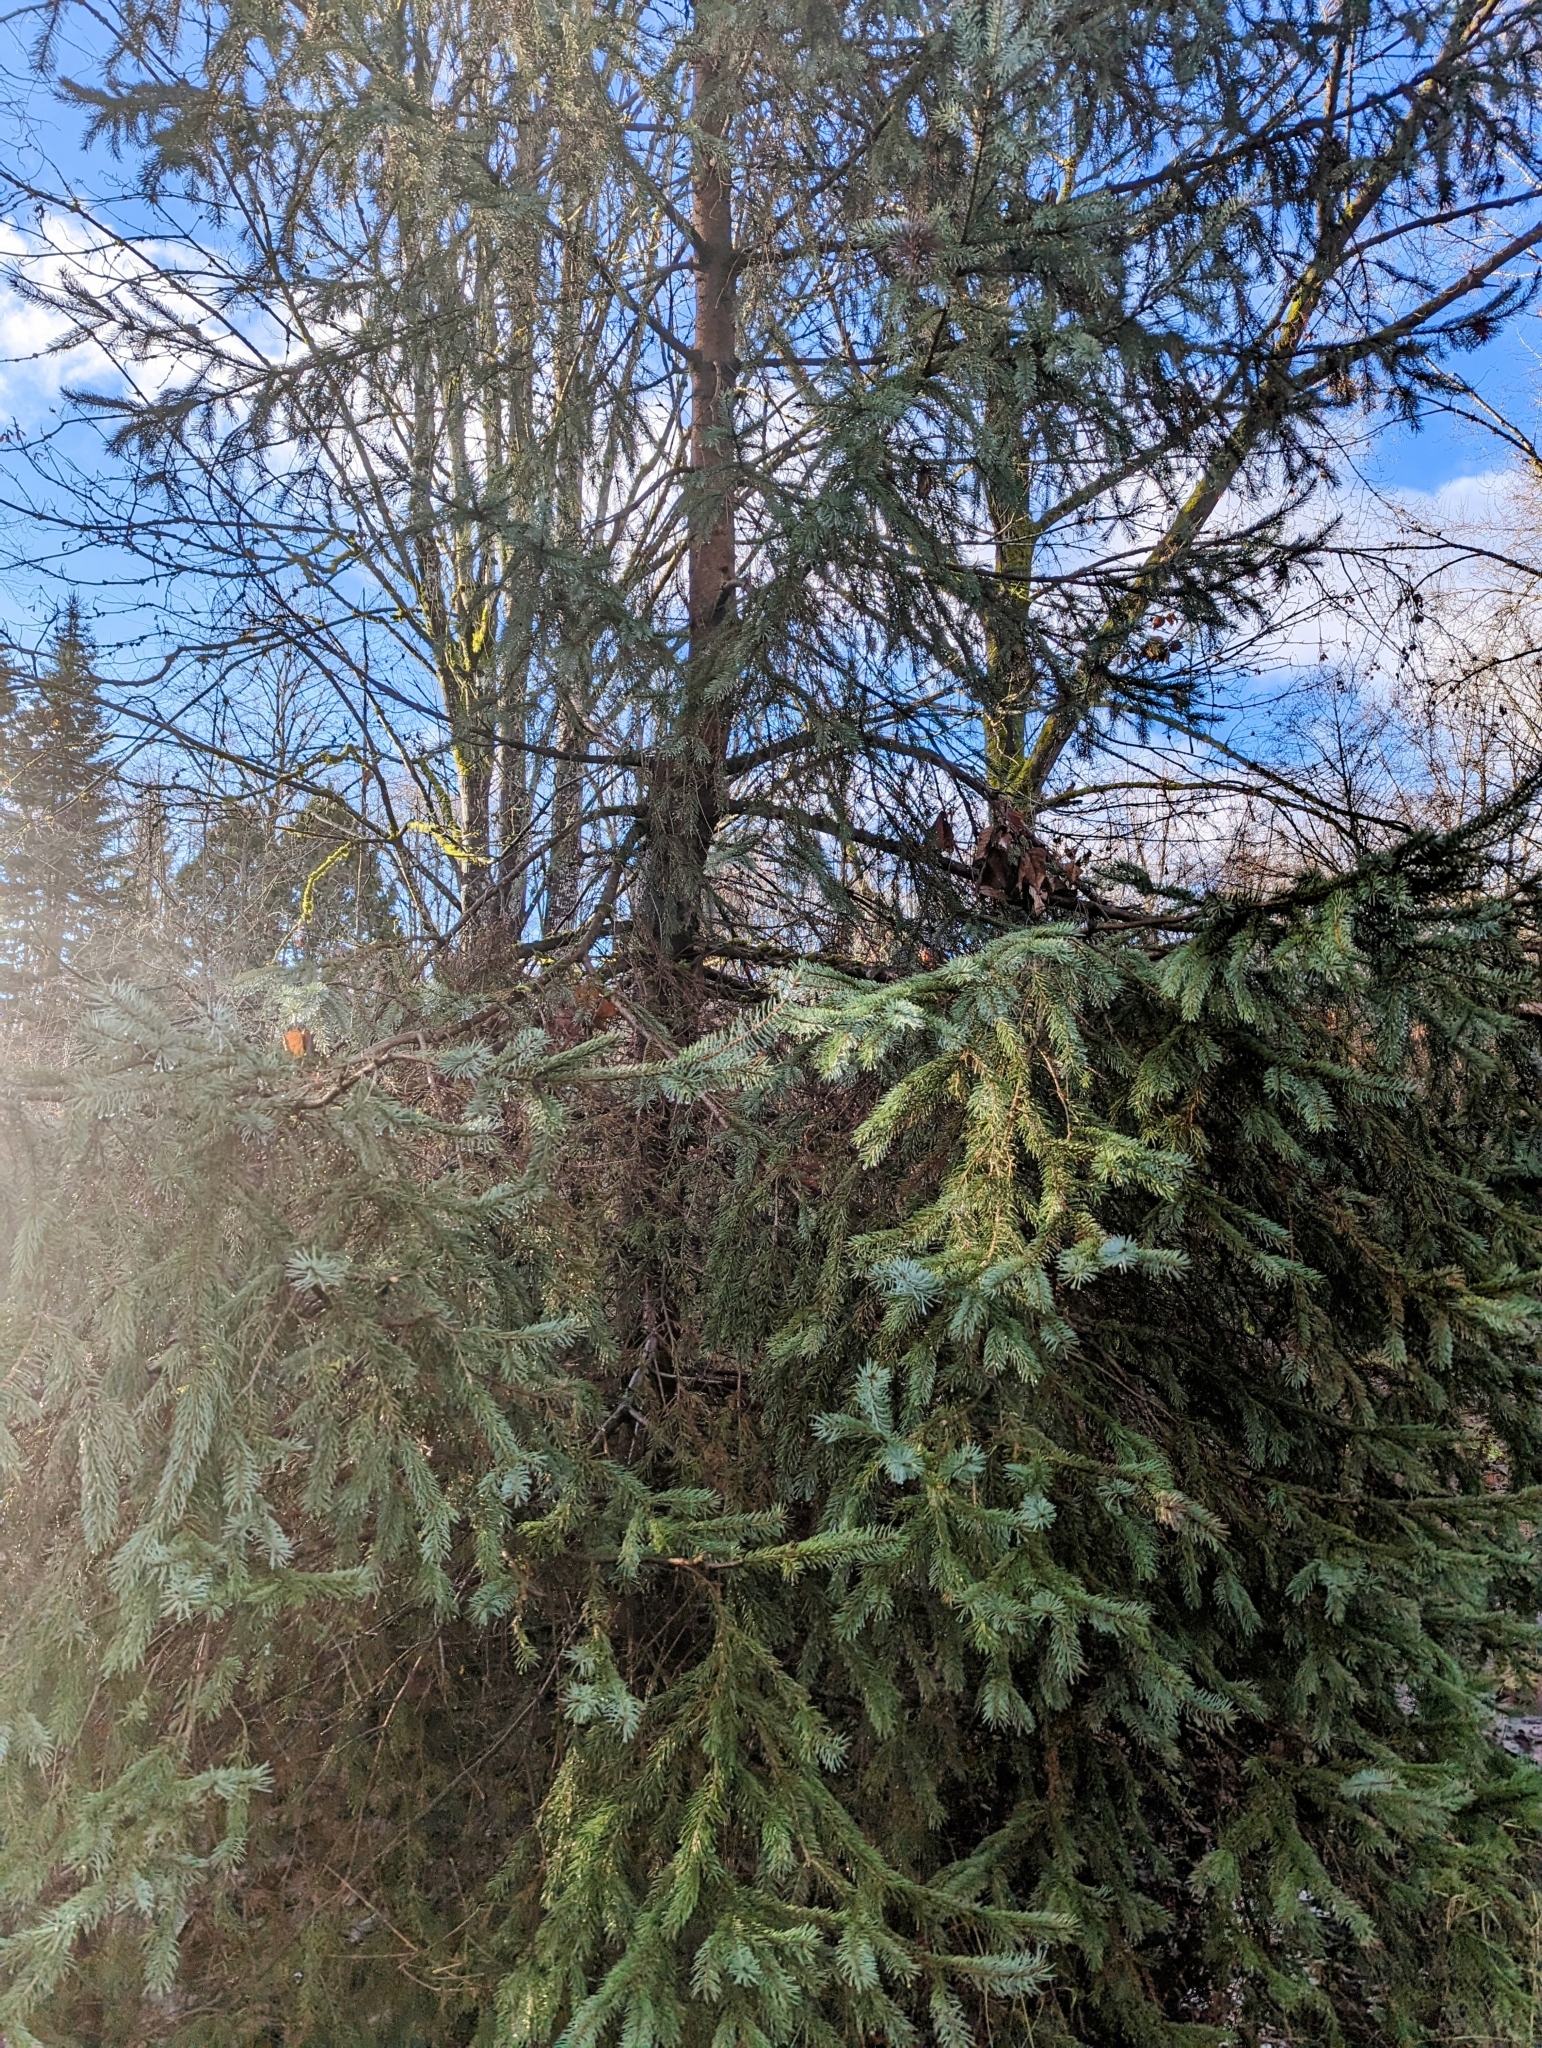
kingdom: Plantae
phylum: Tracheophyta
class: Pinopsida
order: Pinales
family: Pinaceae
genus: Picea
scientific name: Picea sitchensis
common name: Sitka spruce
